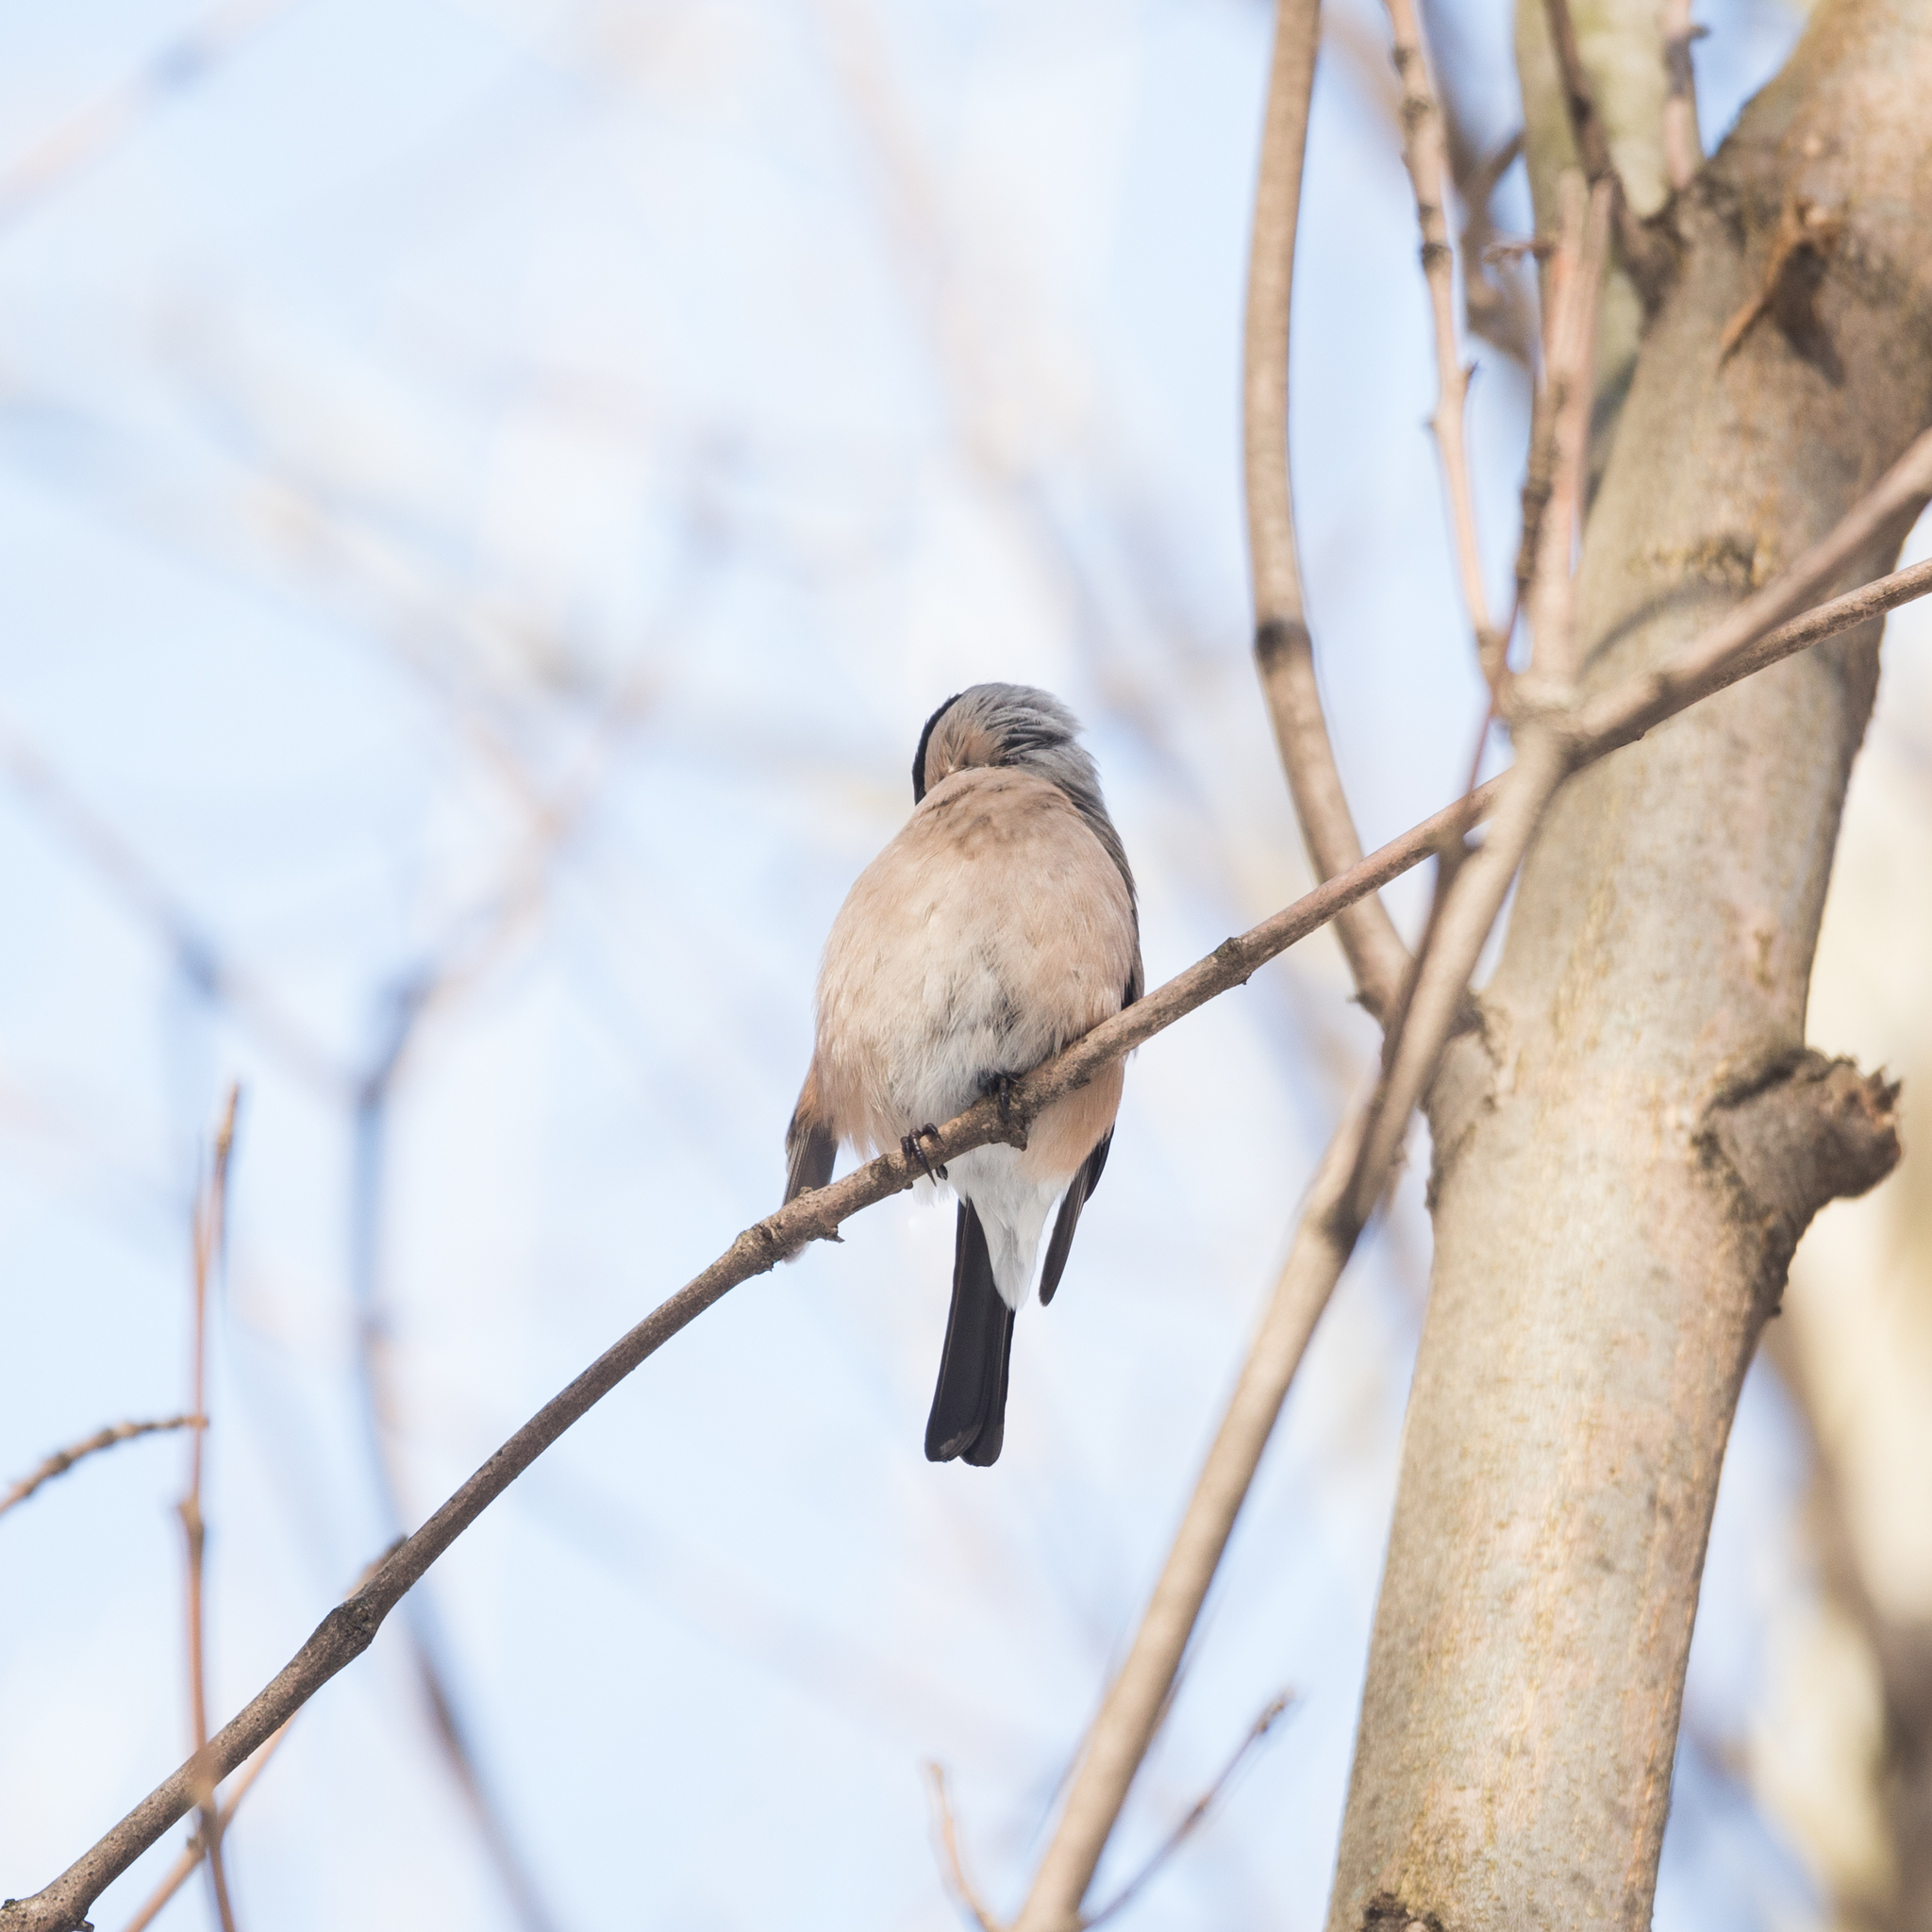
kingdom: Animalia
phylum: Chordata
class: Aves
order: Passeriformes
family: Fringillidae
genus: Pyrrhula
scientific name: Pyrrhula pyrrhula
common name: Eurasian bullfinch
